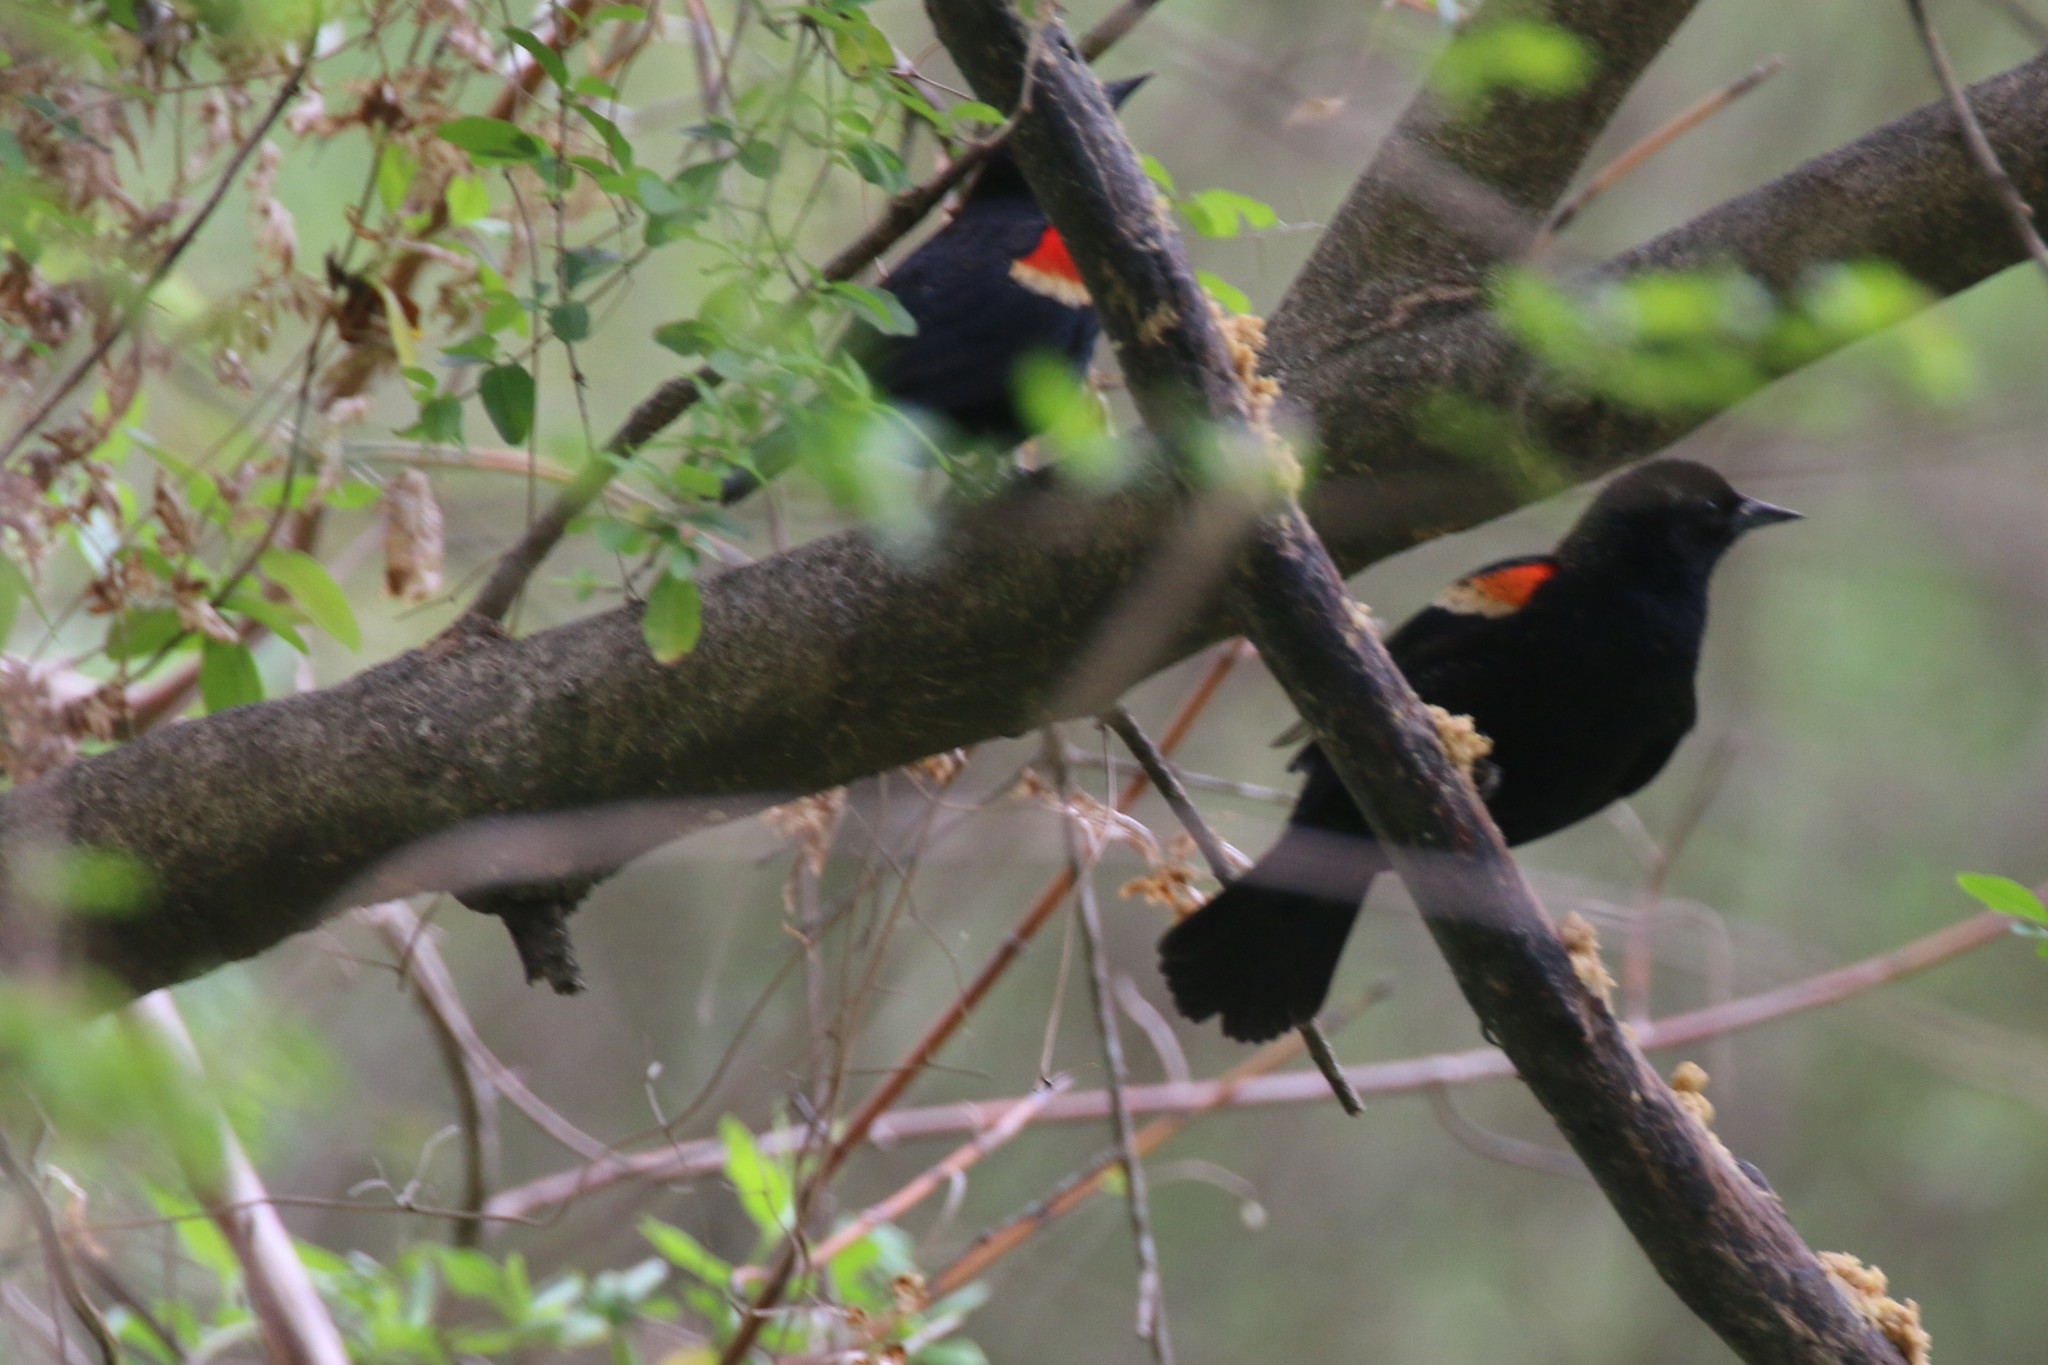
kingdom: Animalia
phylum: Chordata
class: Aves
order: Passeriformes
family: Icteridae
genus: Agelaius
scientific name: Agelaius phoeniceus
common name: Red-winged blackbird
